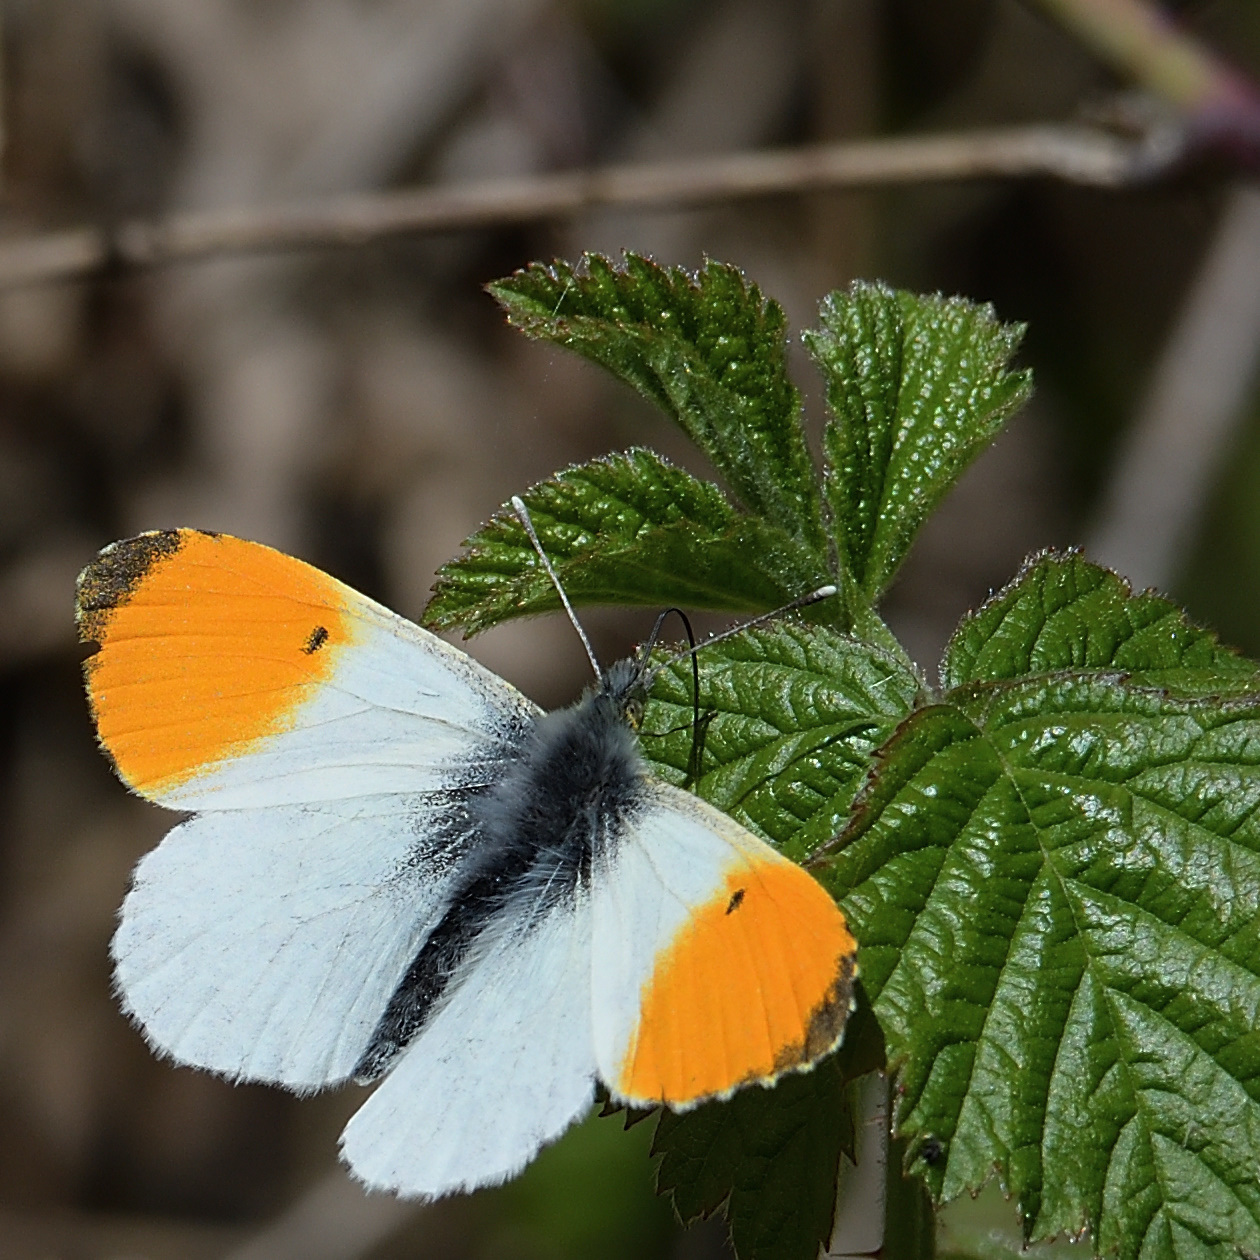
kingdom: Animalia
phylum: Arthropoda
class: Insecta
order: Lepidoptera
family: Pieridae
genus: Anthocharis
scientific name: Anthocharis cardamines
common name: Orange-tip
